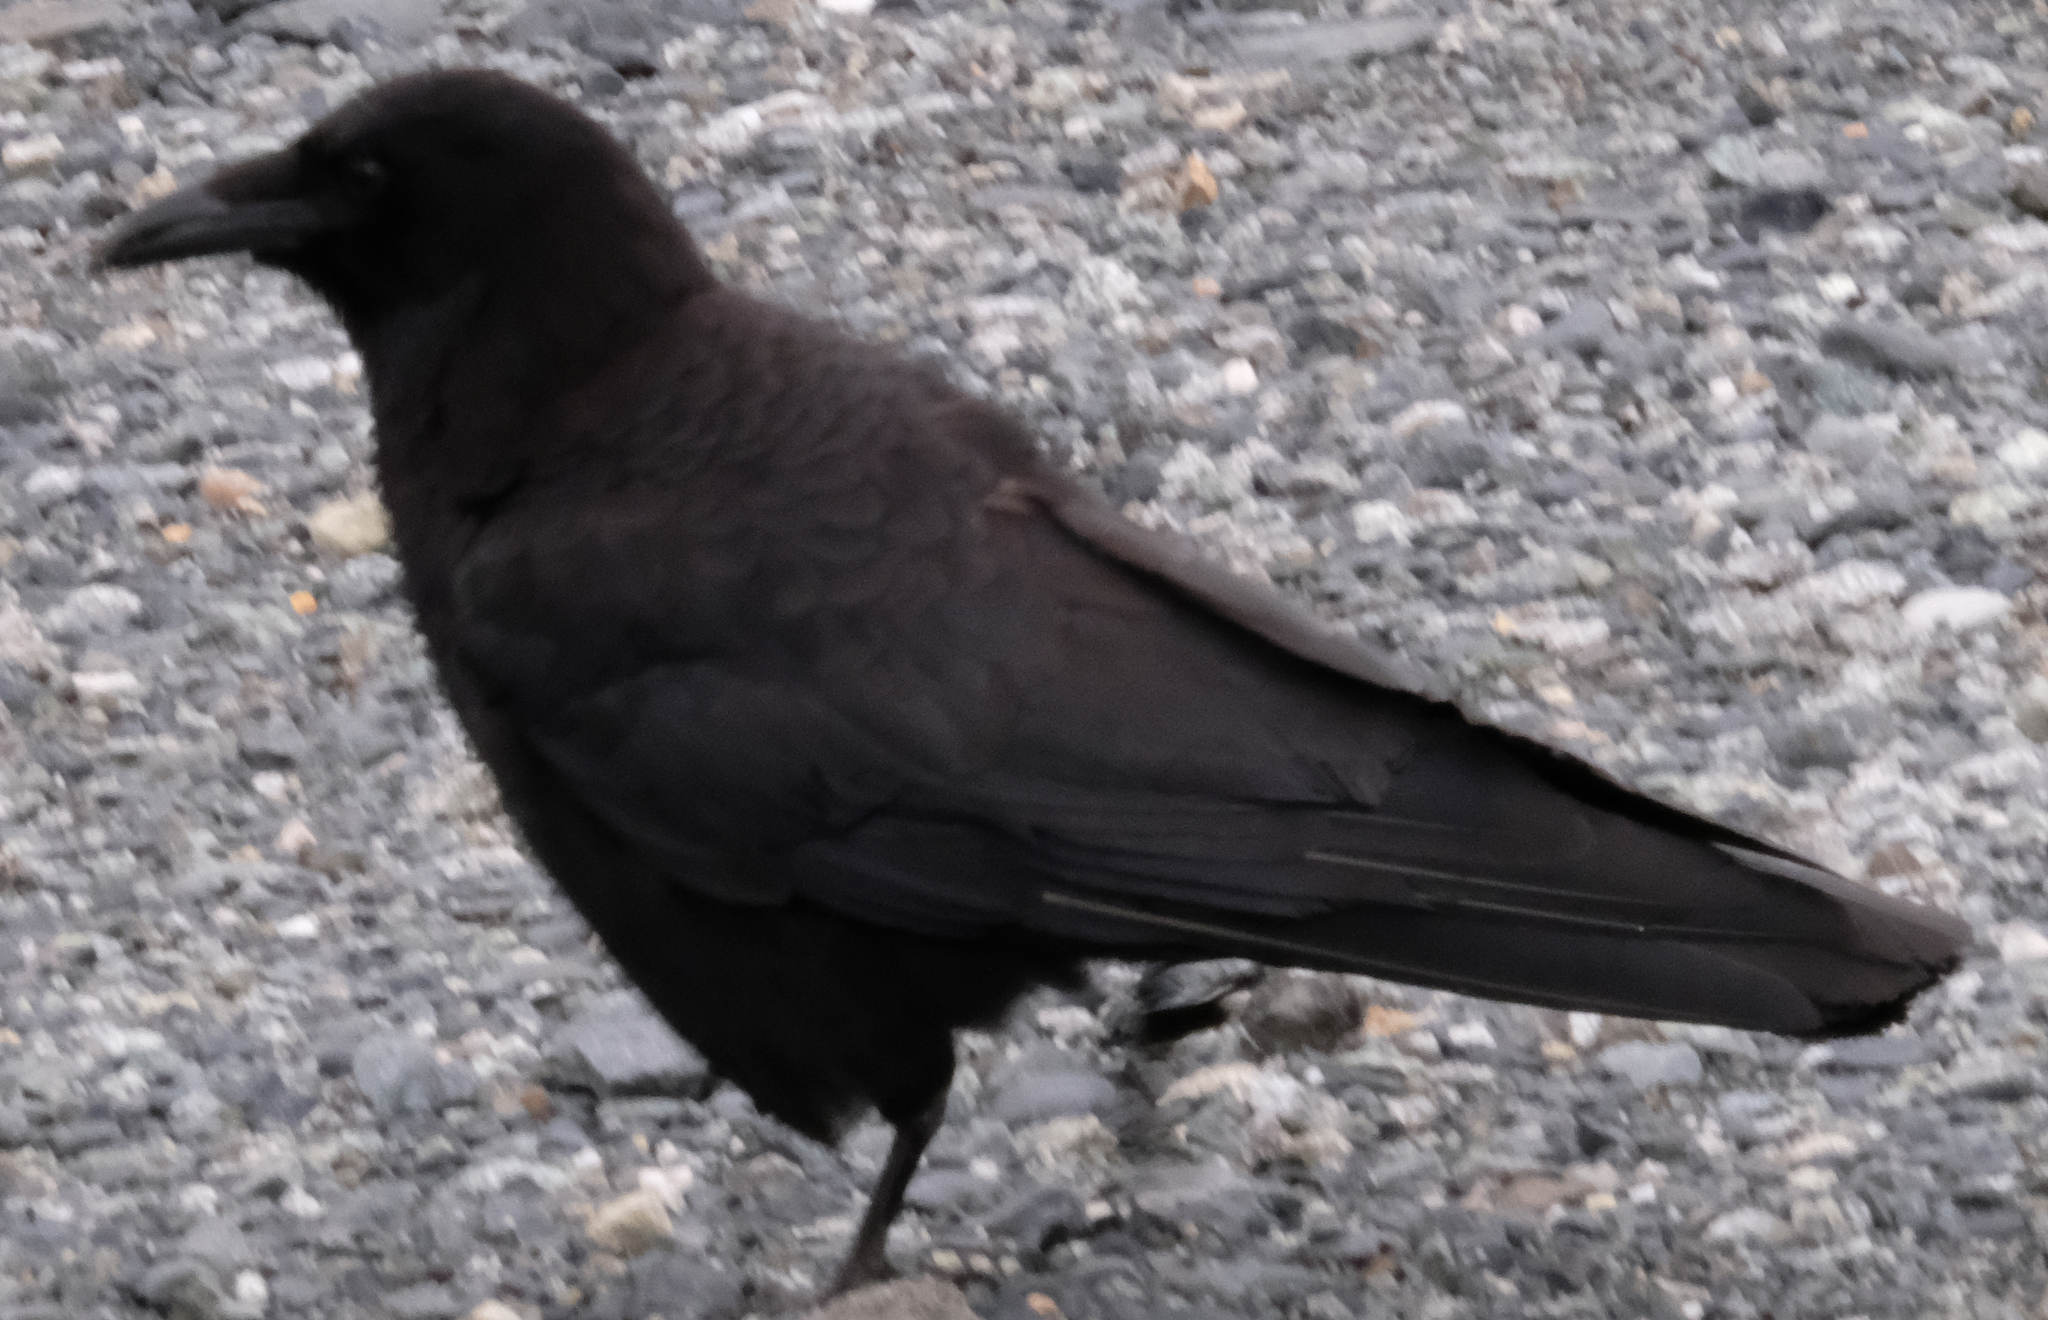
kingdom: Animalia
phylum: Chordata
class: Aves
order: Passeriformes
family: Corvidae
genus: Corvus
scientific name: Corvus brachyrhynchos
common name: American crow
